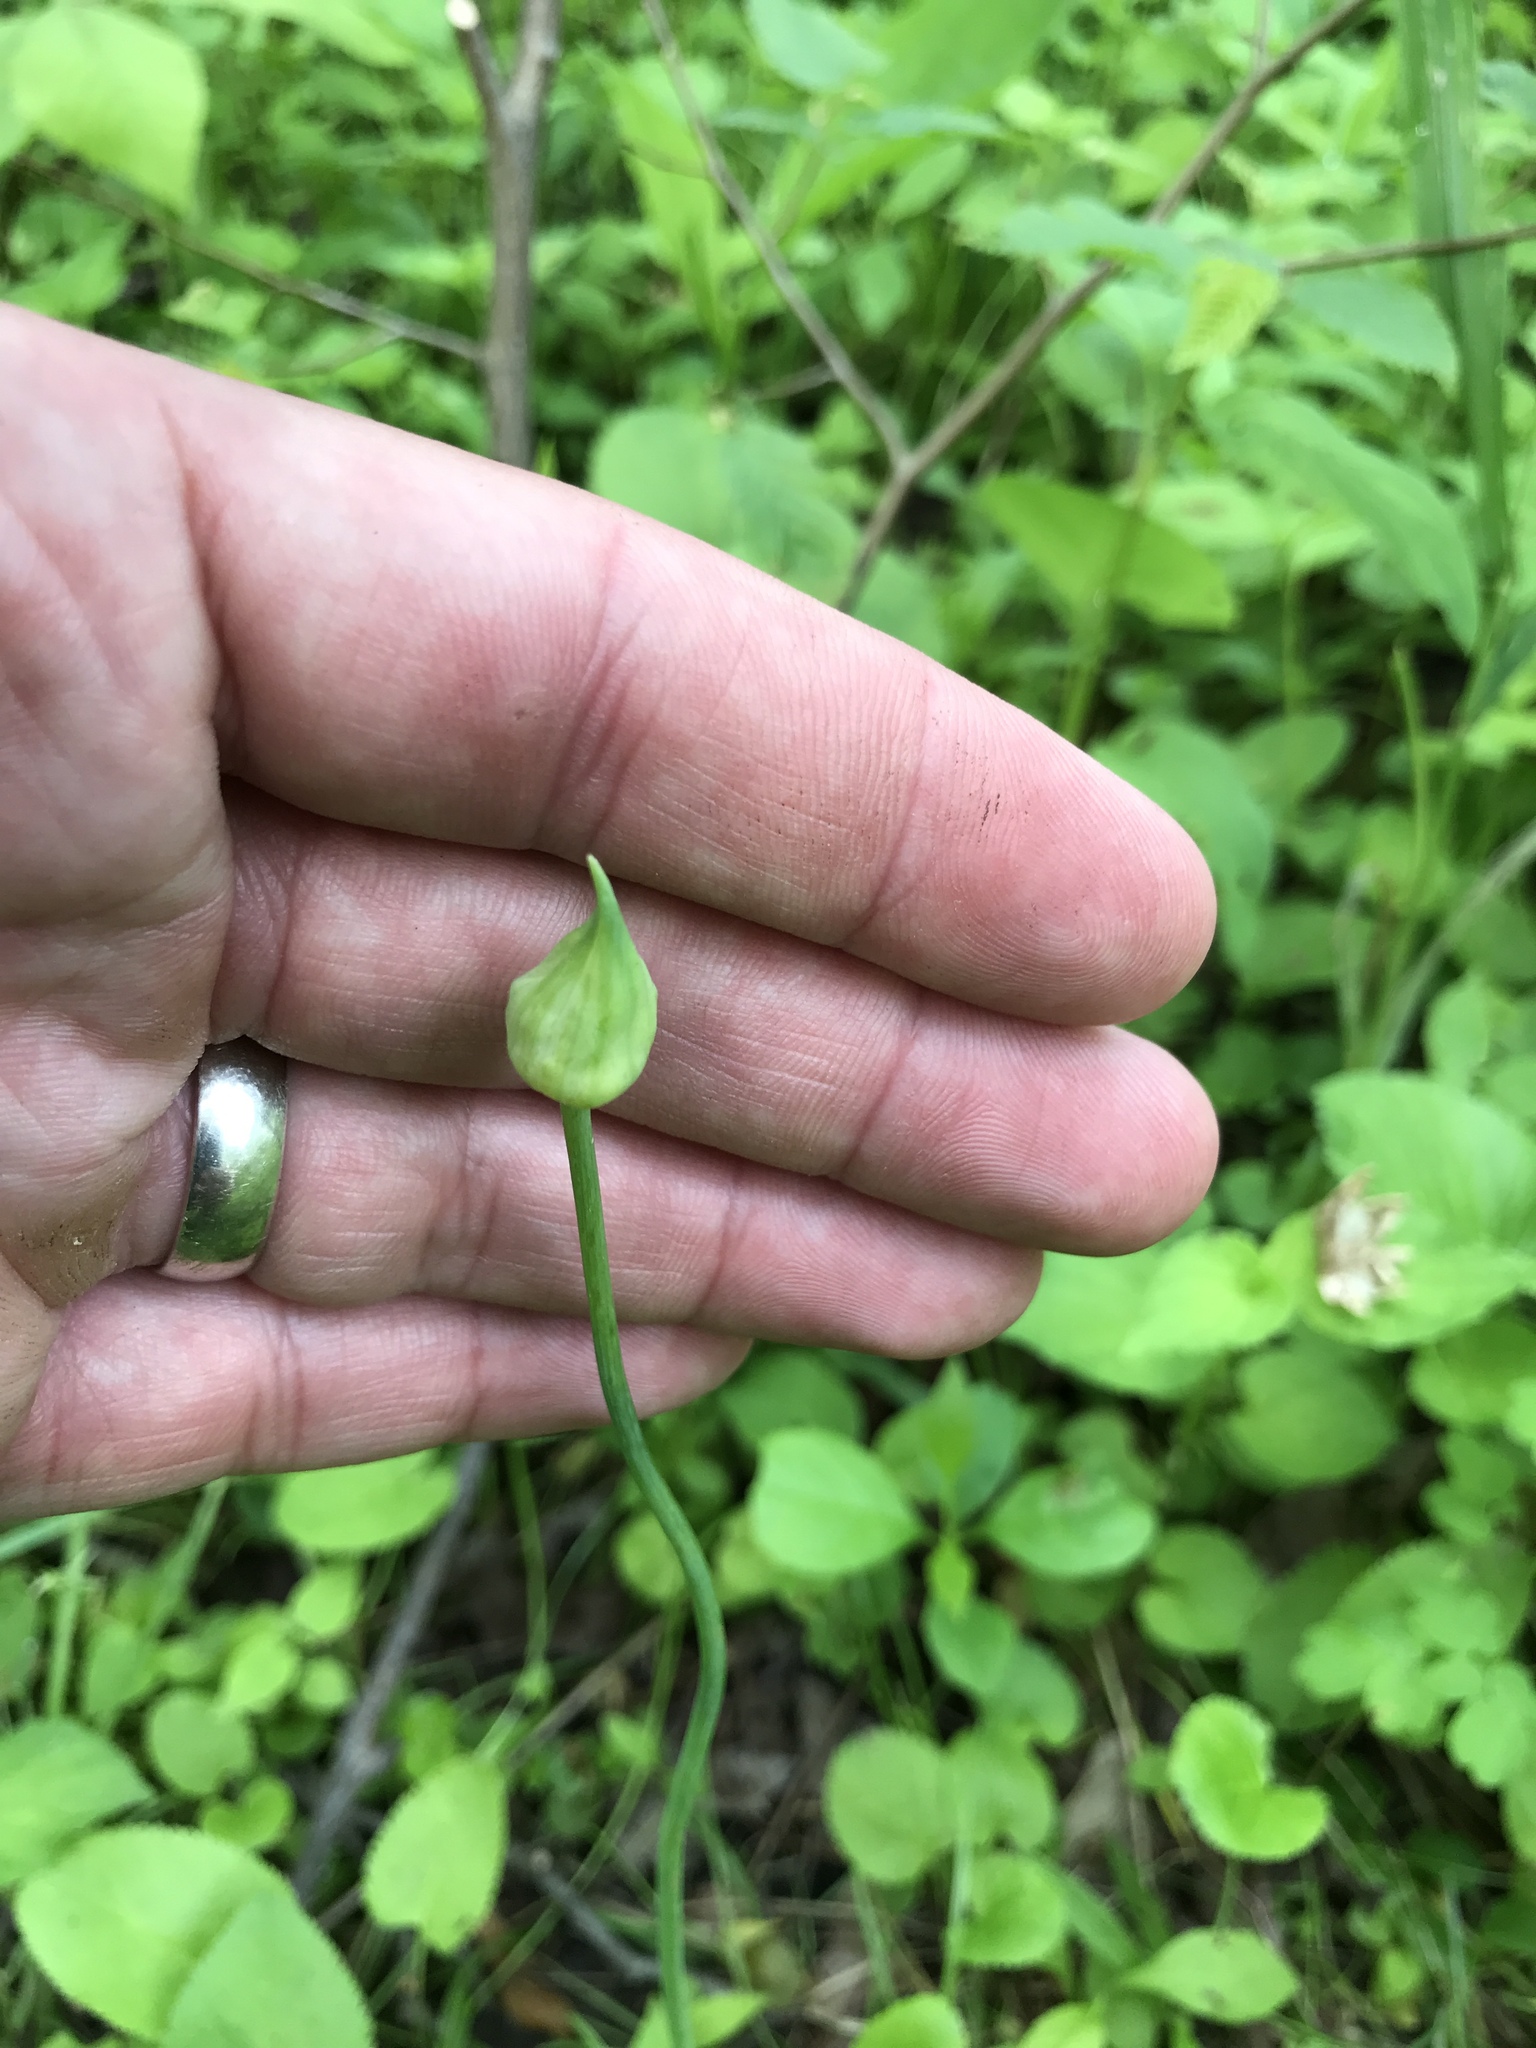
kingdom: Plantae
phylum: Tracheophyta
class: Liliopsida
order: Asparagales
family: Amaryllidaceae
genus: Allium
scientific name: Allium canadense
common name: Meadow garlic
